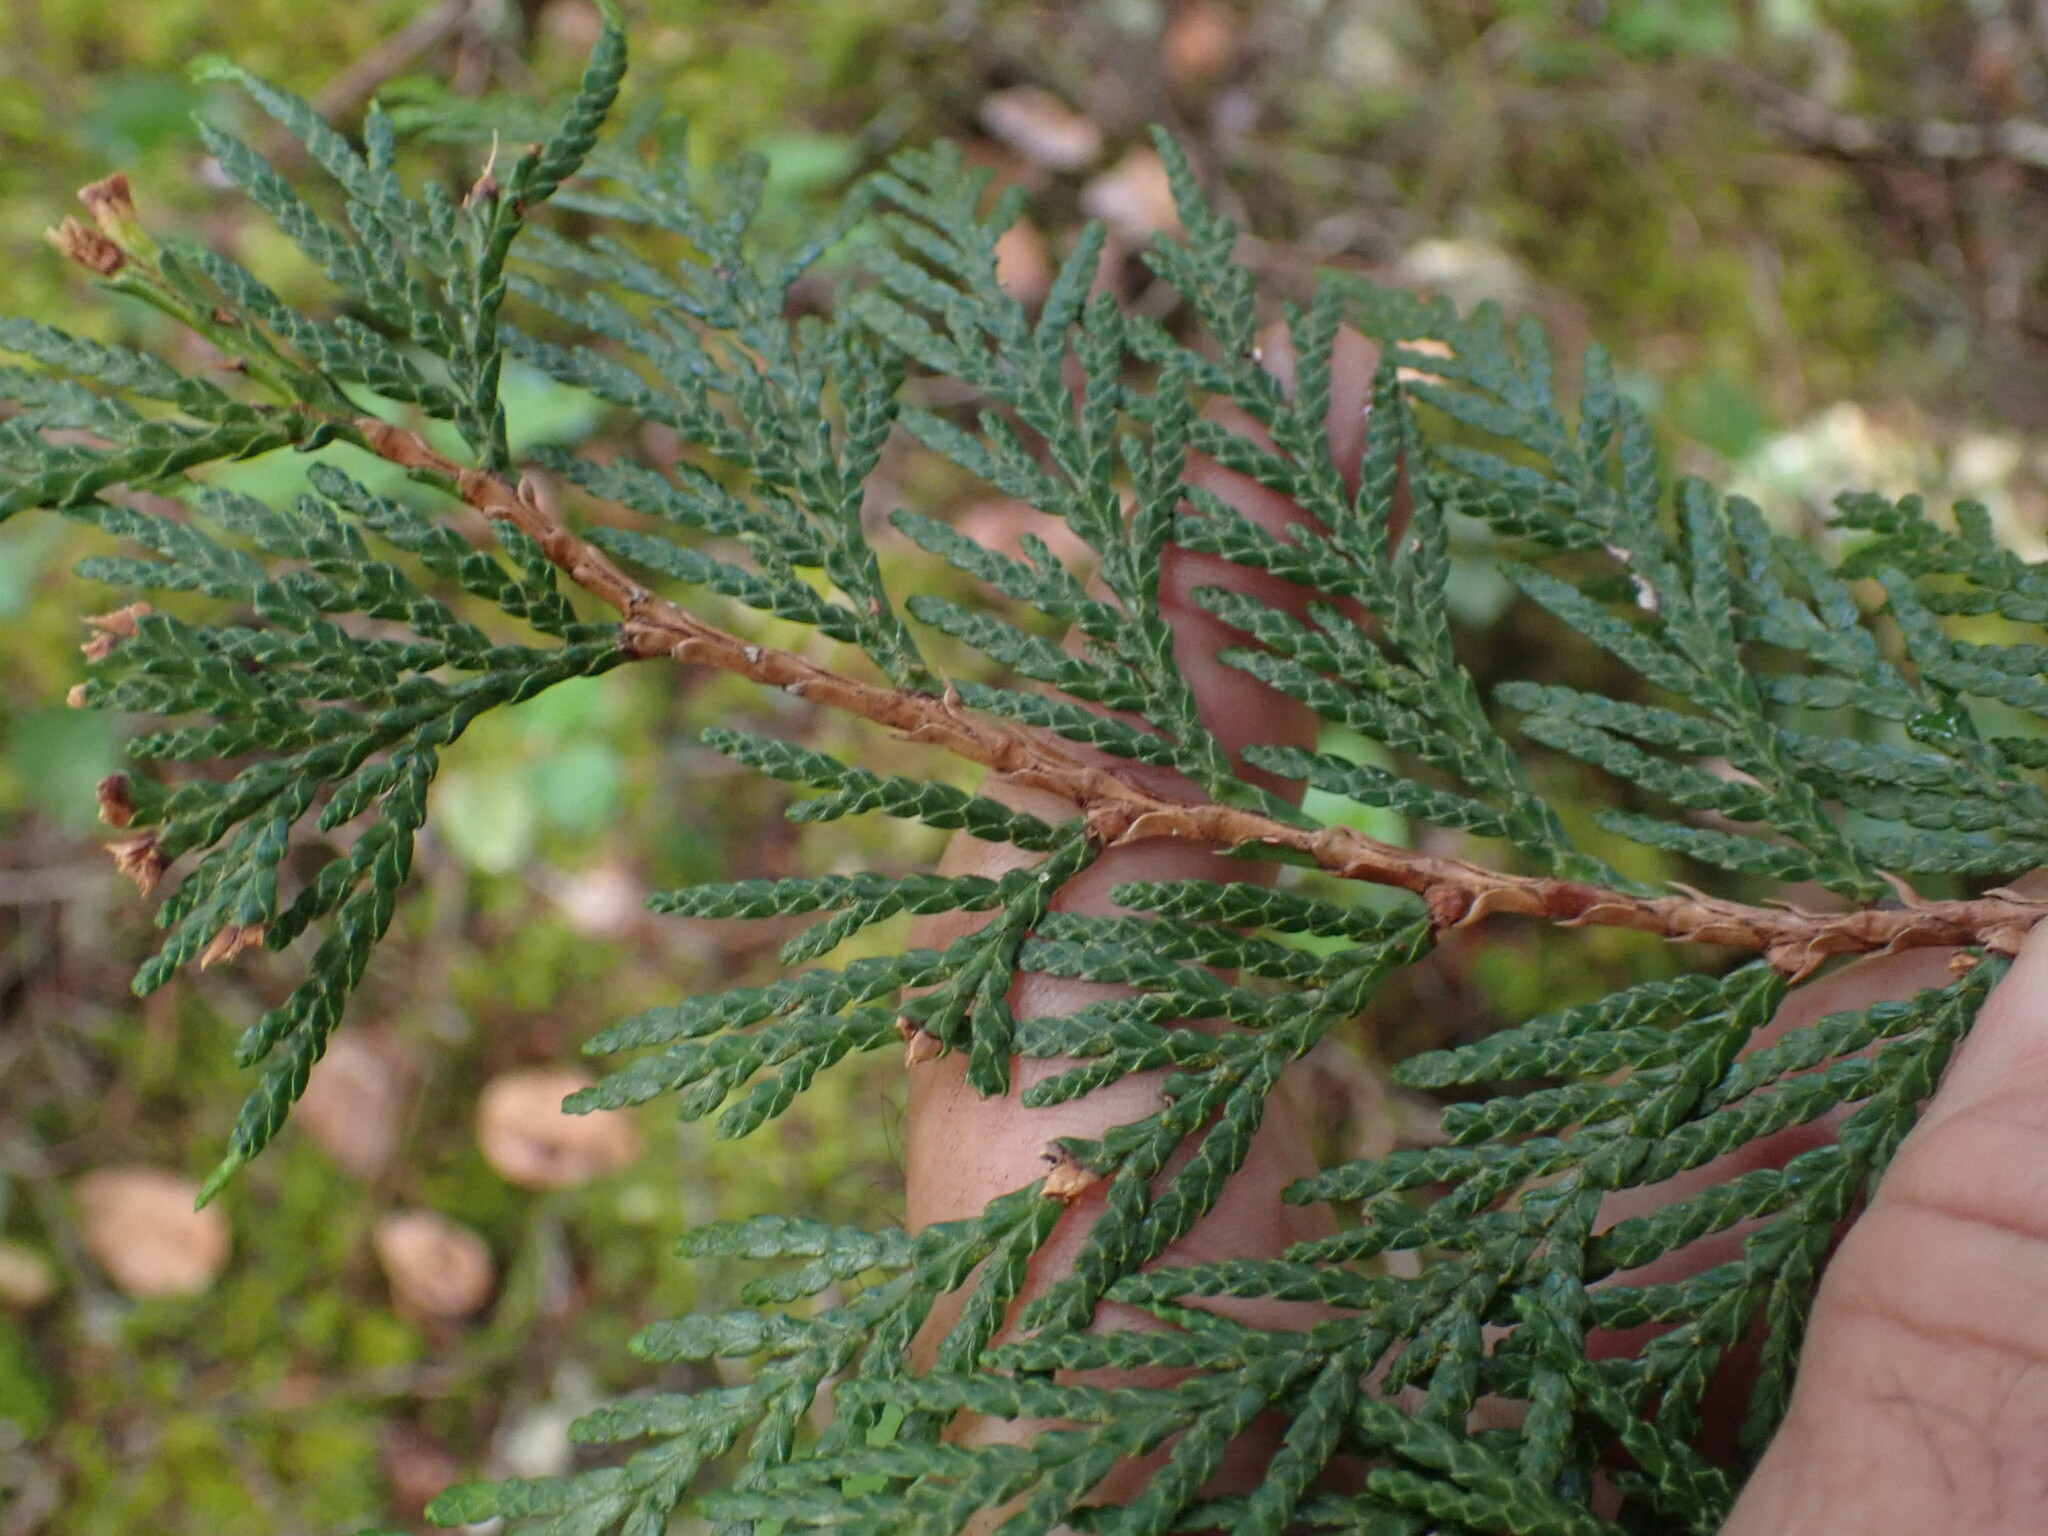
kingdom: Plantae
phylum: Tracheophyta
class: Pinopsida
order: Pinales
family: Cupressaceae
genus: Thuja
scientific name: Thuja plicata
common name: Western red-cedar
